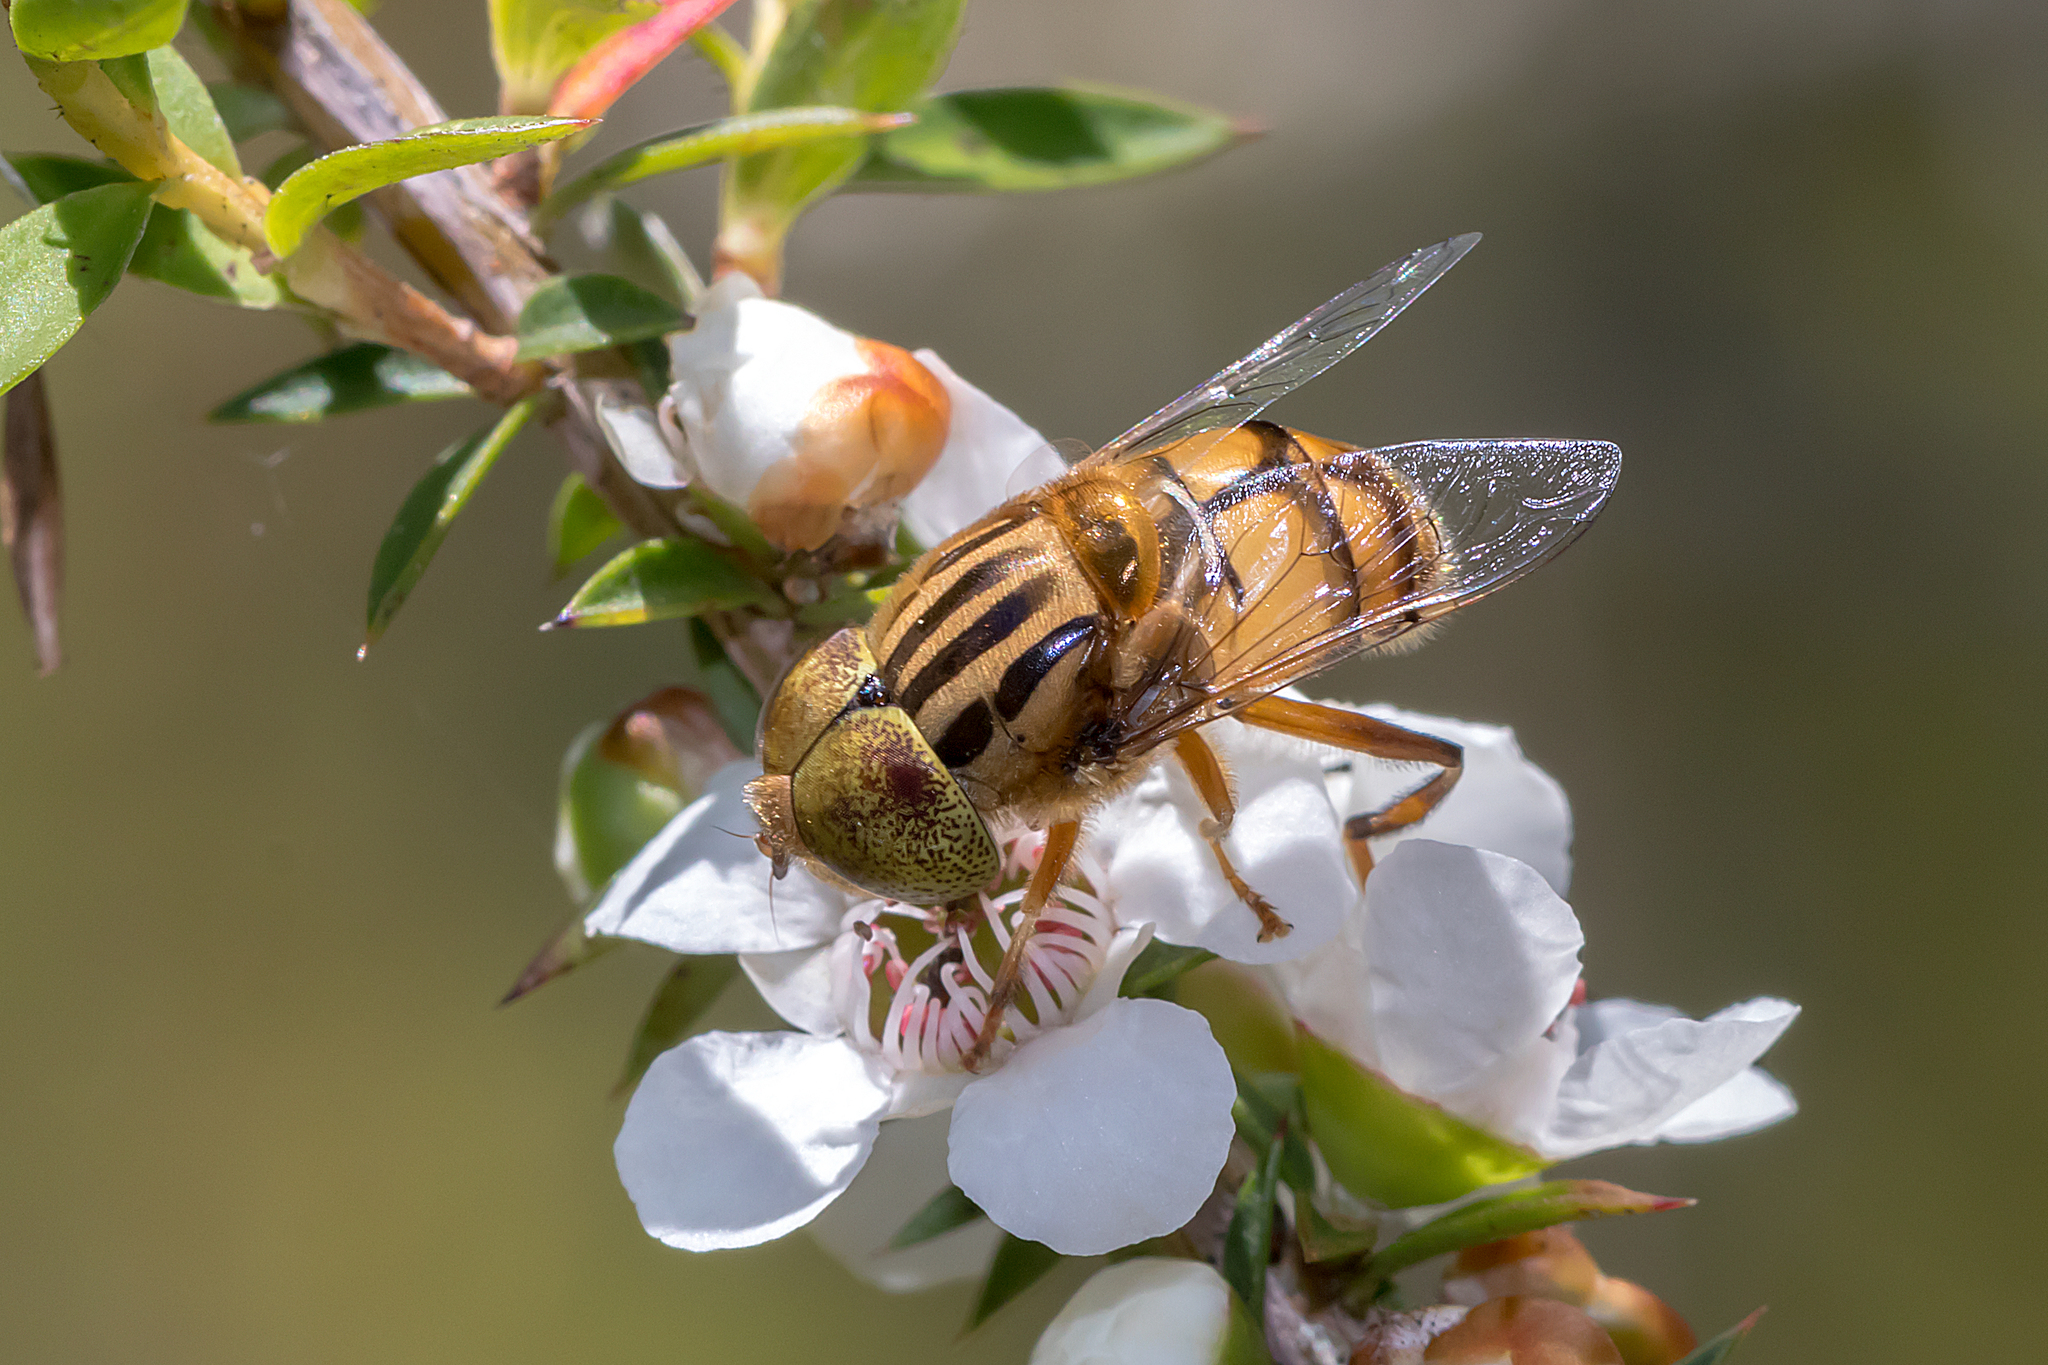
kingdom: Animalia
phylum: Arthropoda
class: Insecta
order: Diptera
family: Syrphidae
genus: Eristalinus
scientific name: Eristalinus punctulatus
